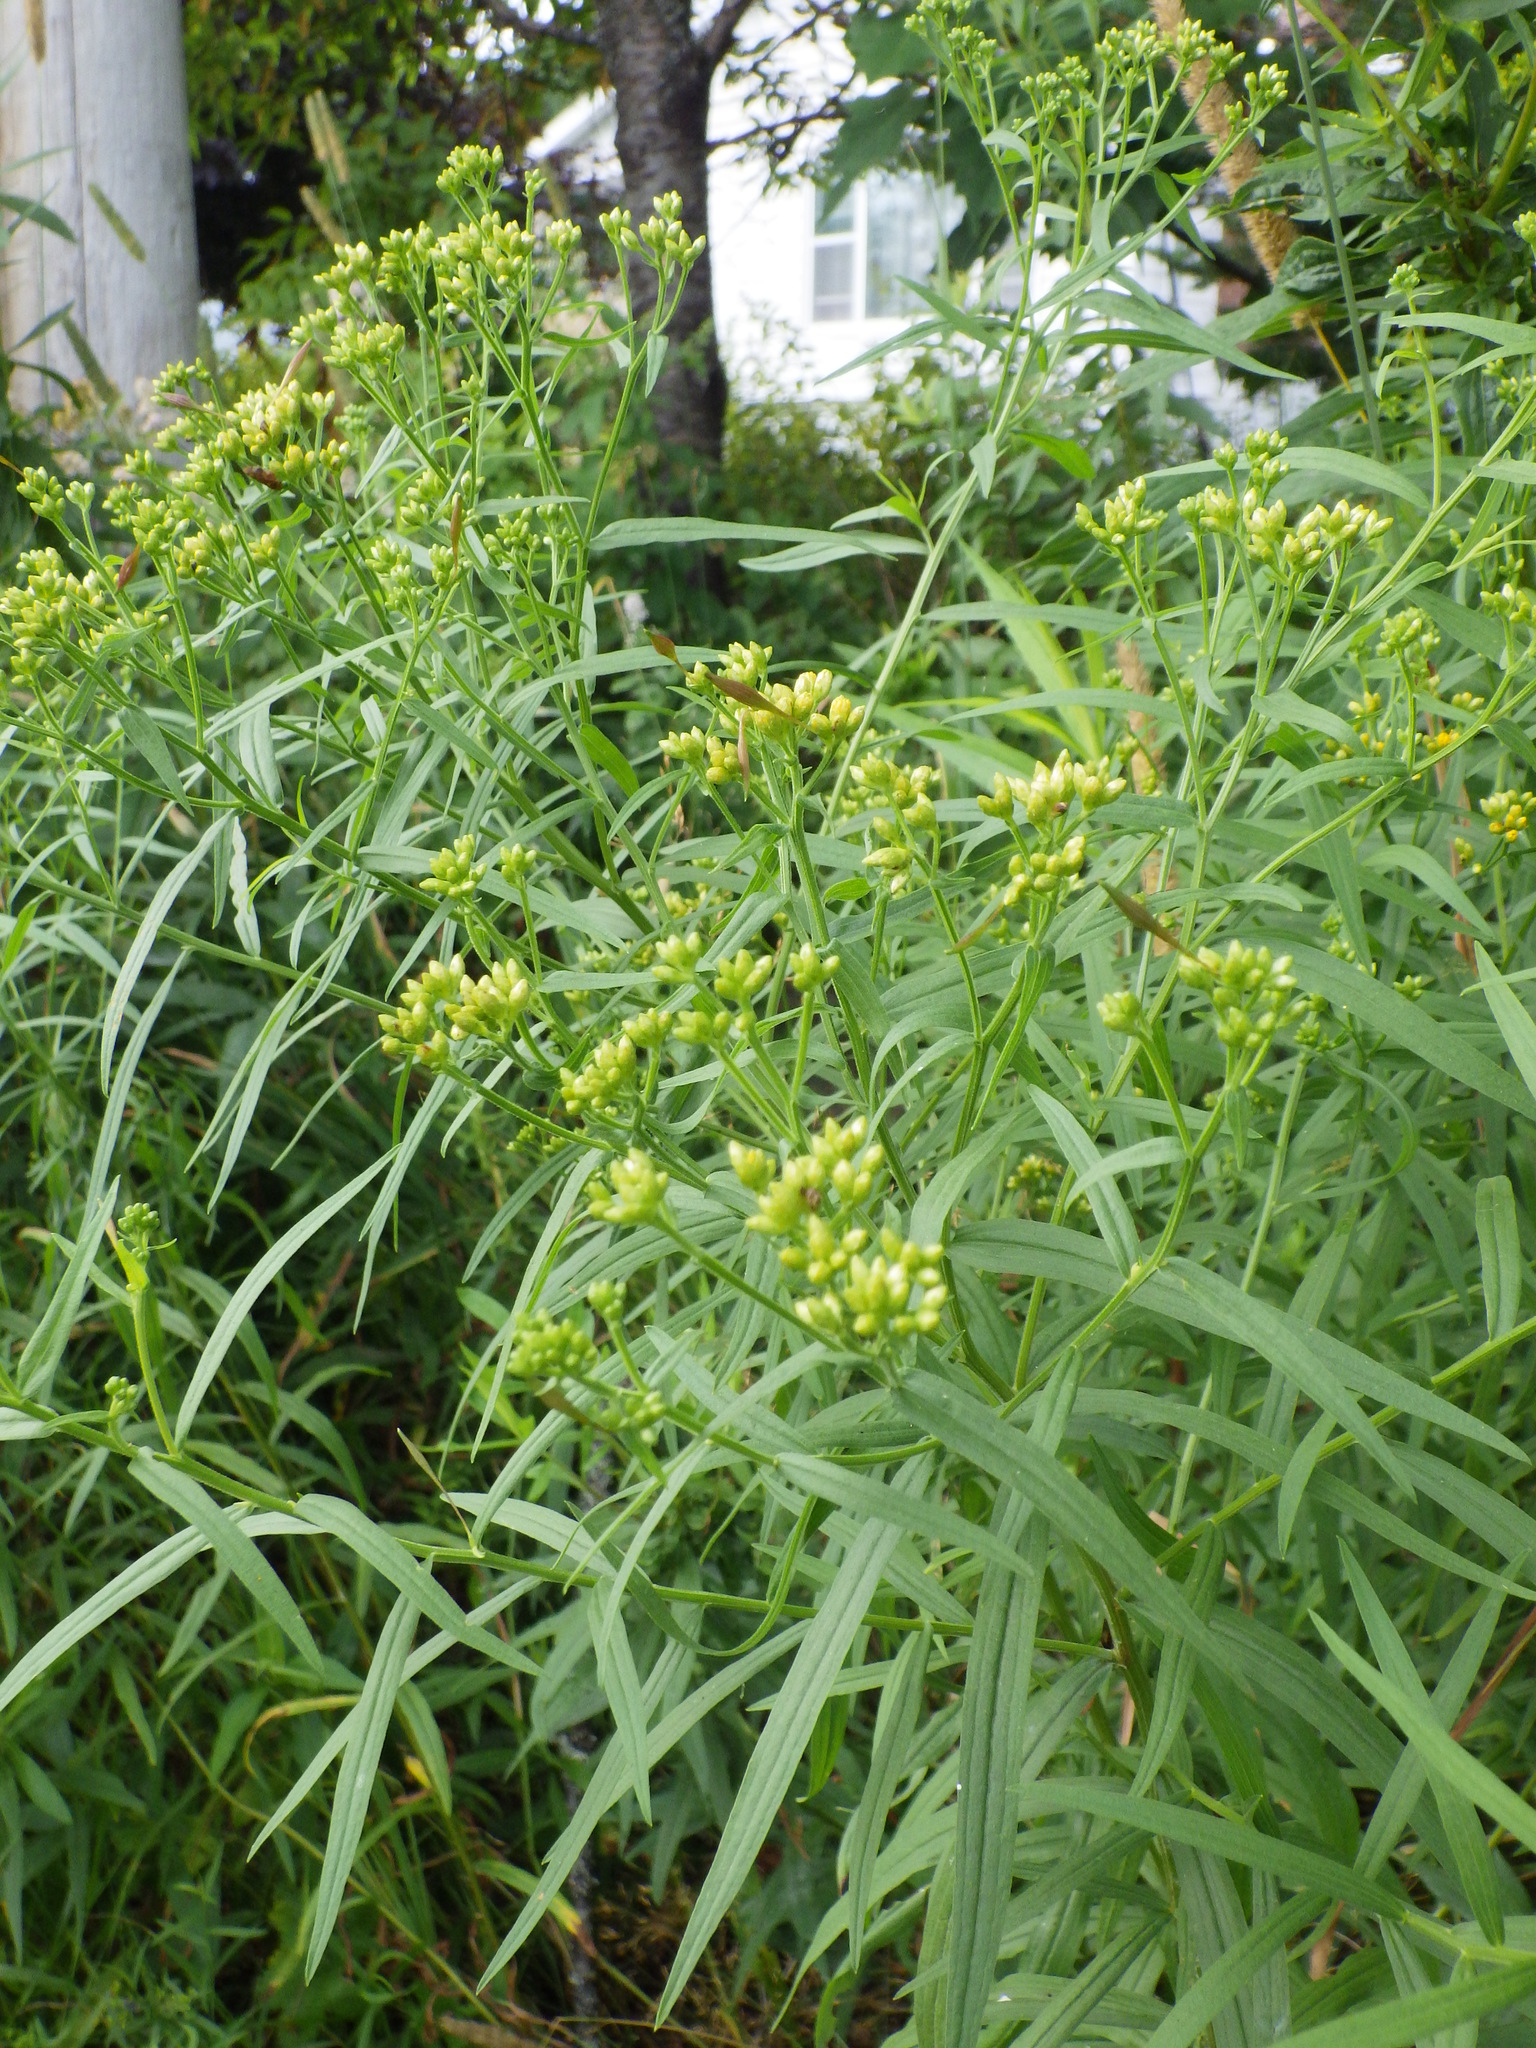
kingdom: Plantae
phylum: Tracheophyta
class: Magnoliopsida
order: Asterales
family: Asteraceae
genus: Euthamia
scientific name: Euthamia graminifolia
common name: Common goldentop
